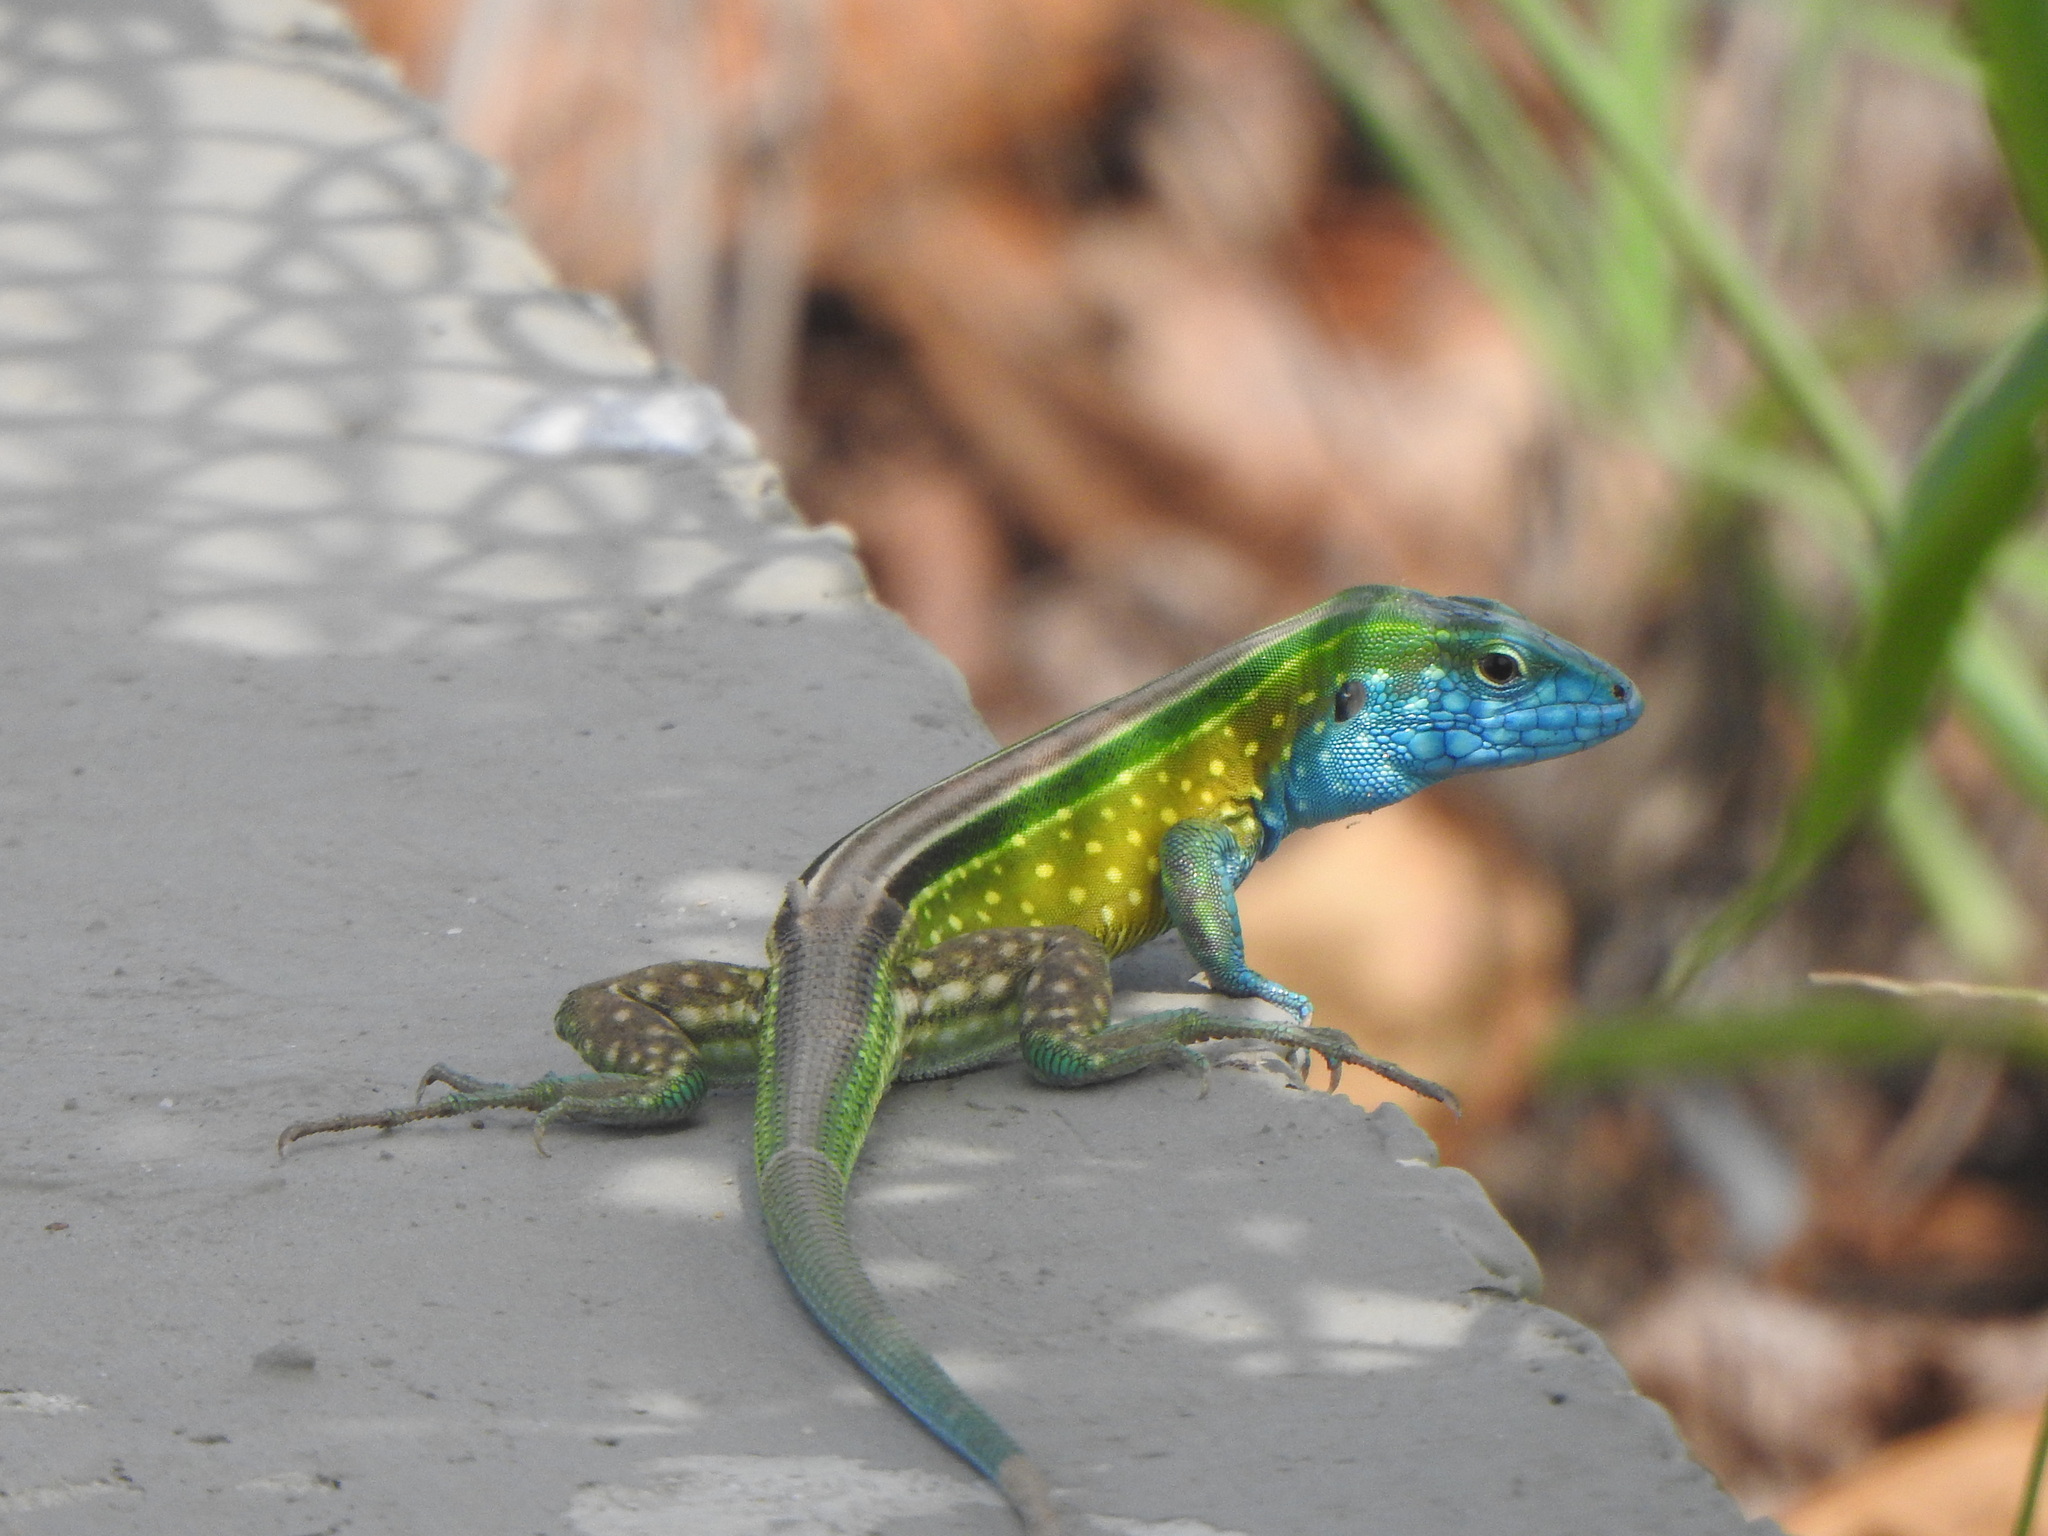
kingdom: Animalia
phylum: Chordata
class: Squamata
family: Teiidae
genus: Cnemidophorus
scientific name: Cnemidophorus gaigei
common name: Gaige’s rainbow lizard
